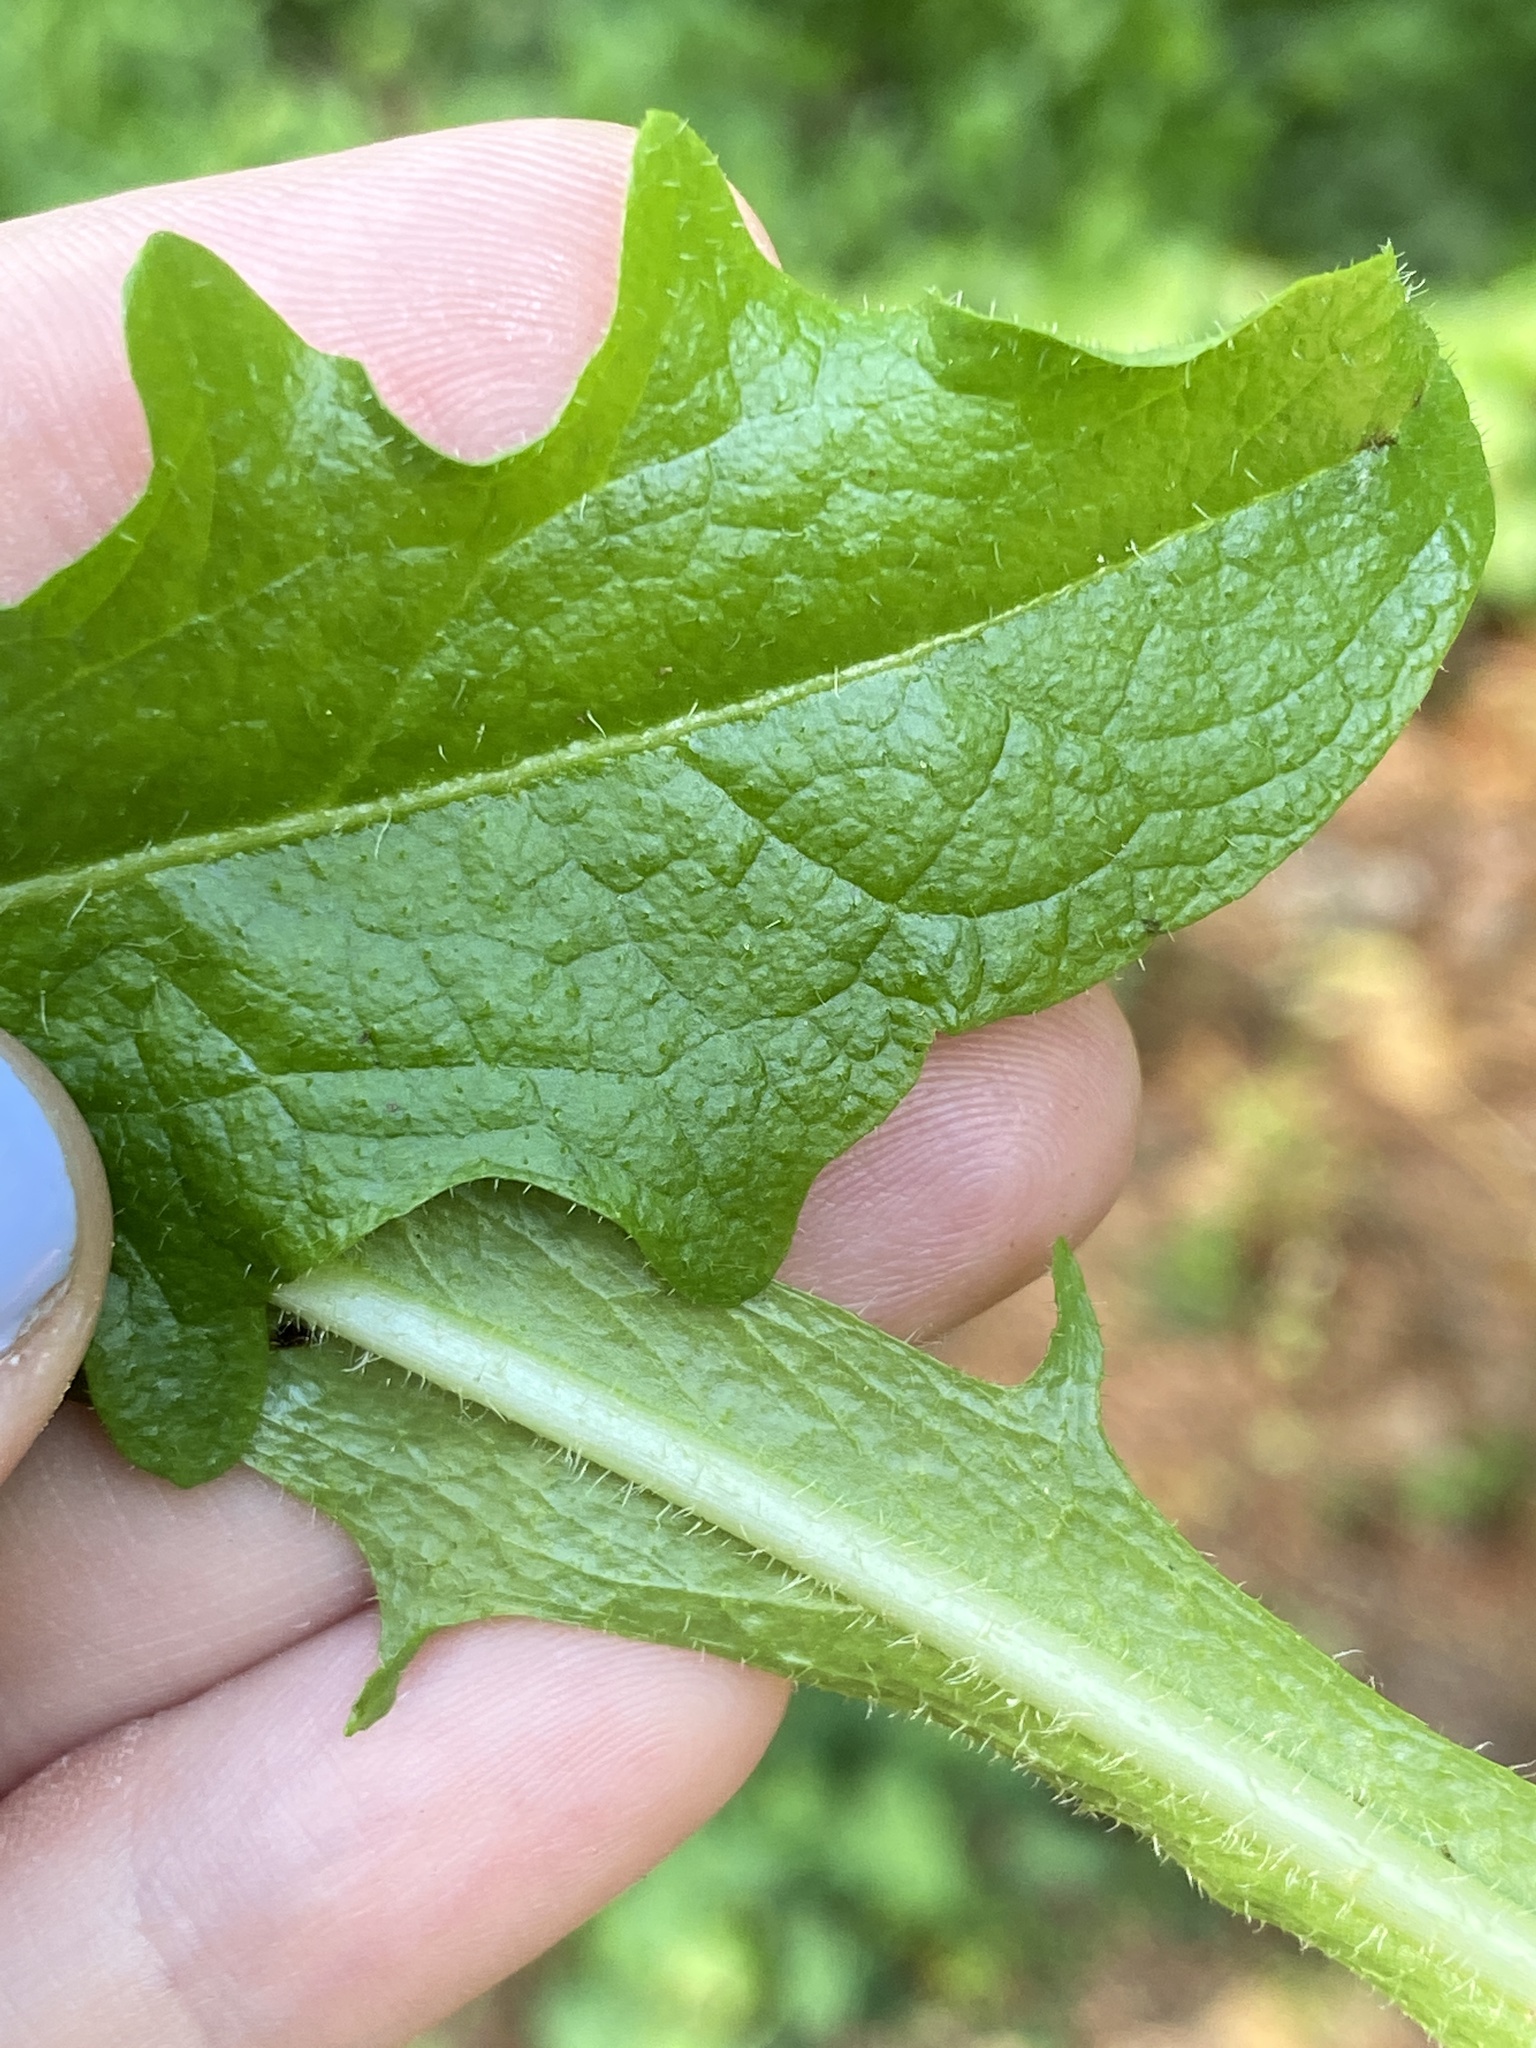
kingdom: Plantae
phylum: Tracheophyta
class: Magnoliopsida
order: Asterales
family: Asteraceae
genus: Hypochaeris
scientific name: Hypochaeris radicata
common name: Flatweed
